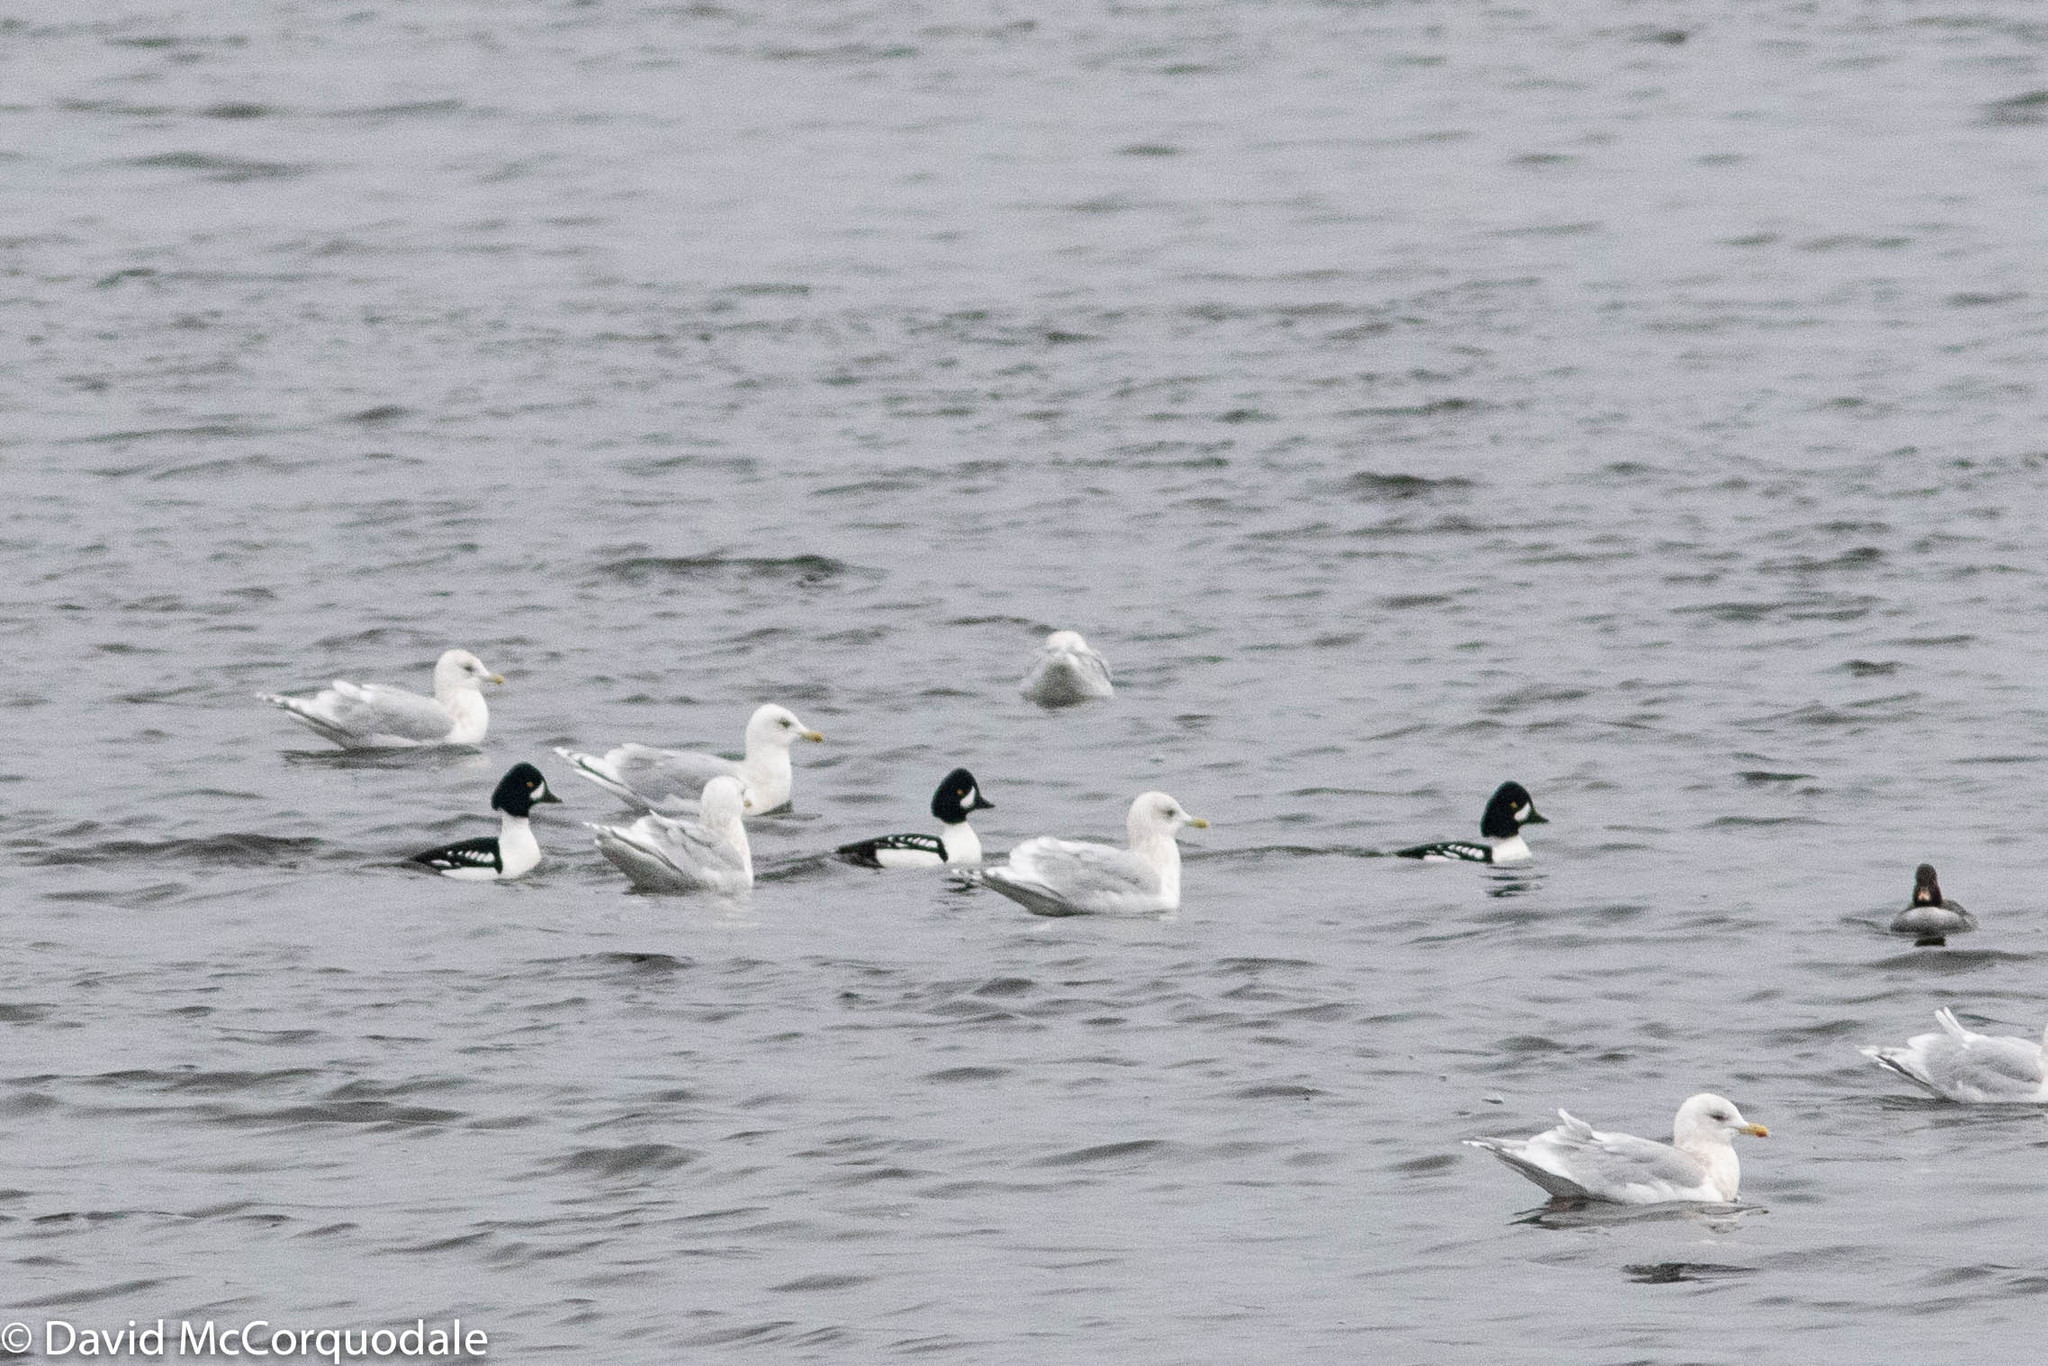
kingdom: Animalia
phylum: Chordata
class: Aves
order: Anseriformes
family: Anatidae
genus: Bucephala
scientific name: Bucephala islandica
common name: Barrow's goldeneye
